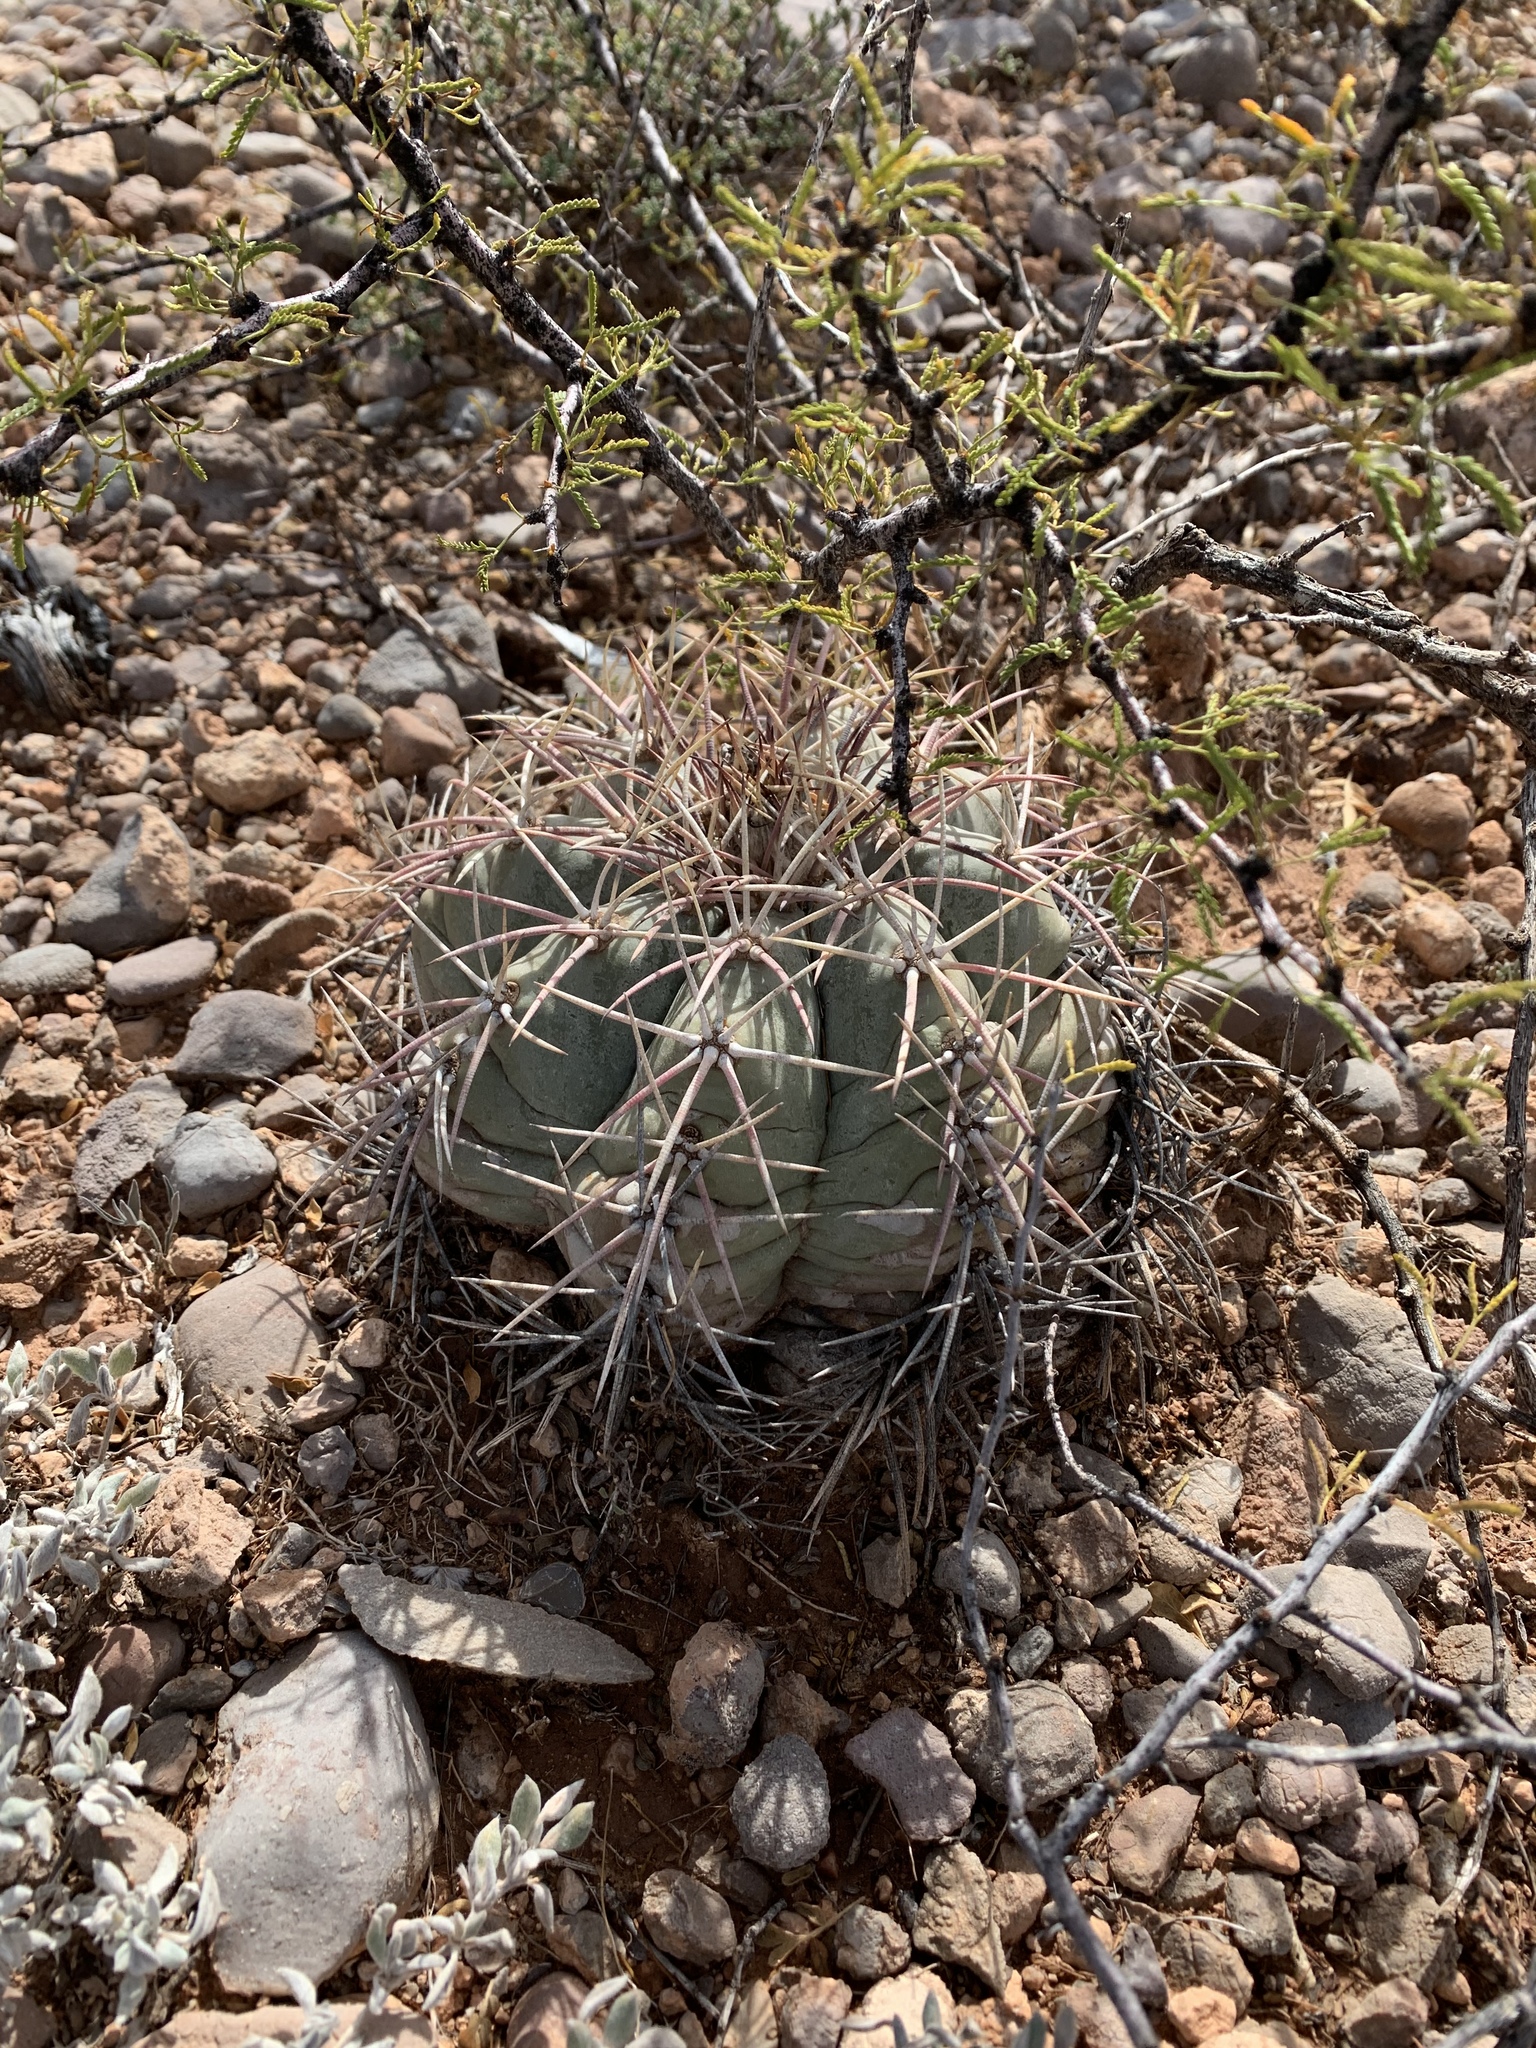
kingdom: Plantae
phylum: Tracheophyta
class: Magnoliopsida
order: Caryophyllales
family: Cactaceae
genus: Echinocactus
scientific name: Echinocactus horizonthalonius
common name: Devilshead
